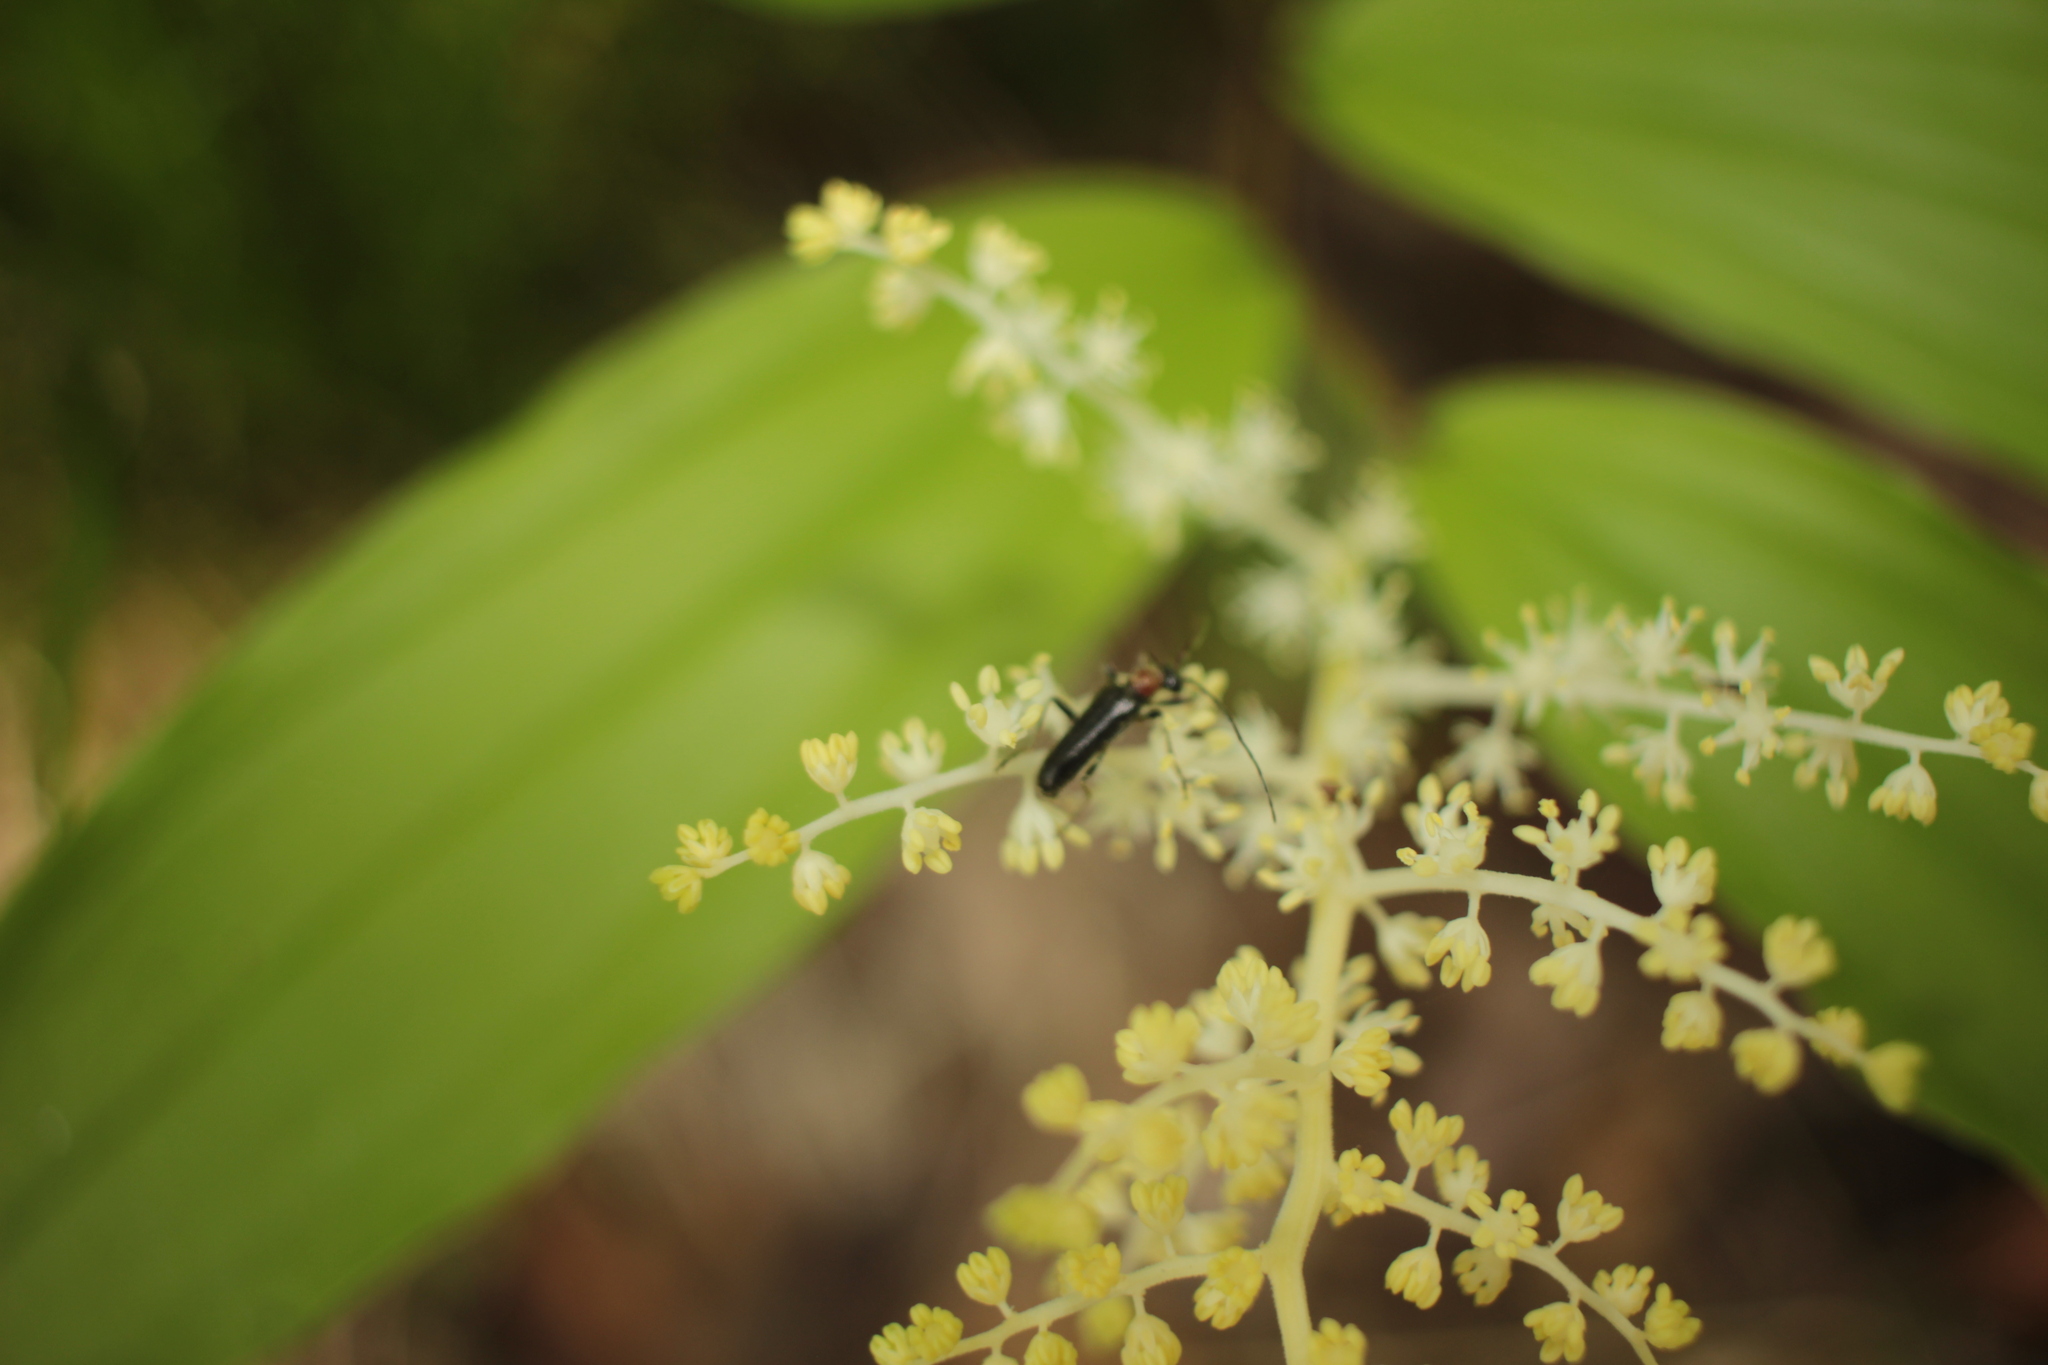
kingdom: Plantae
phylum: Tracheophyta
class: Liliopsida
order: Asparagales
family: Asparagaceae
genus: Maianthemum
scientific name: Maianthemum racemosum
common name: False spikenard
